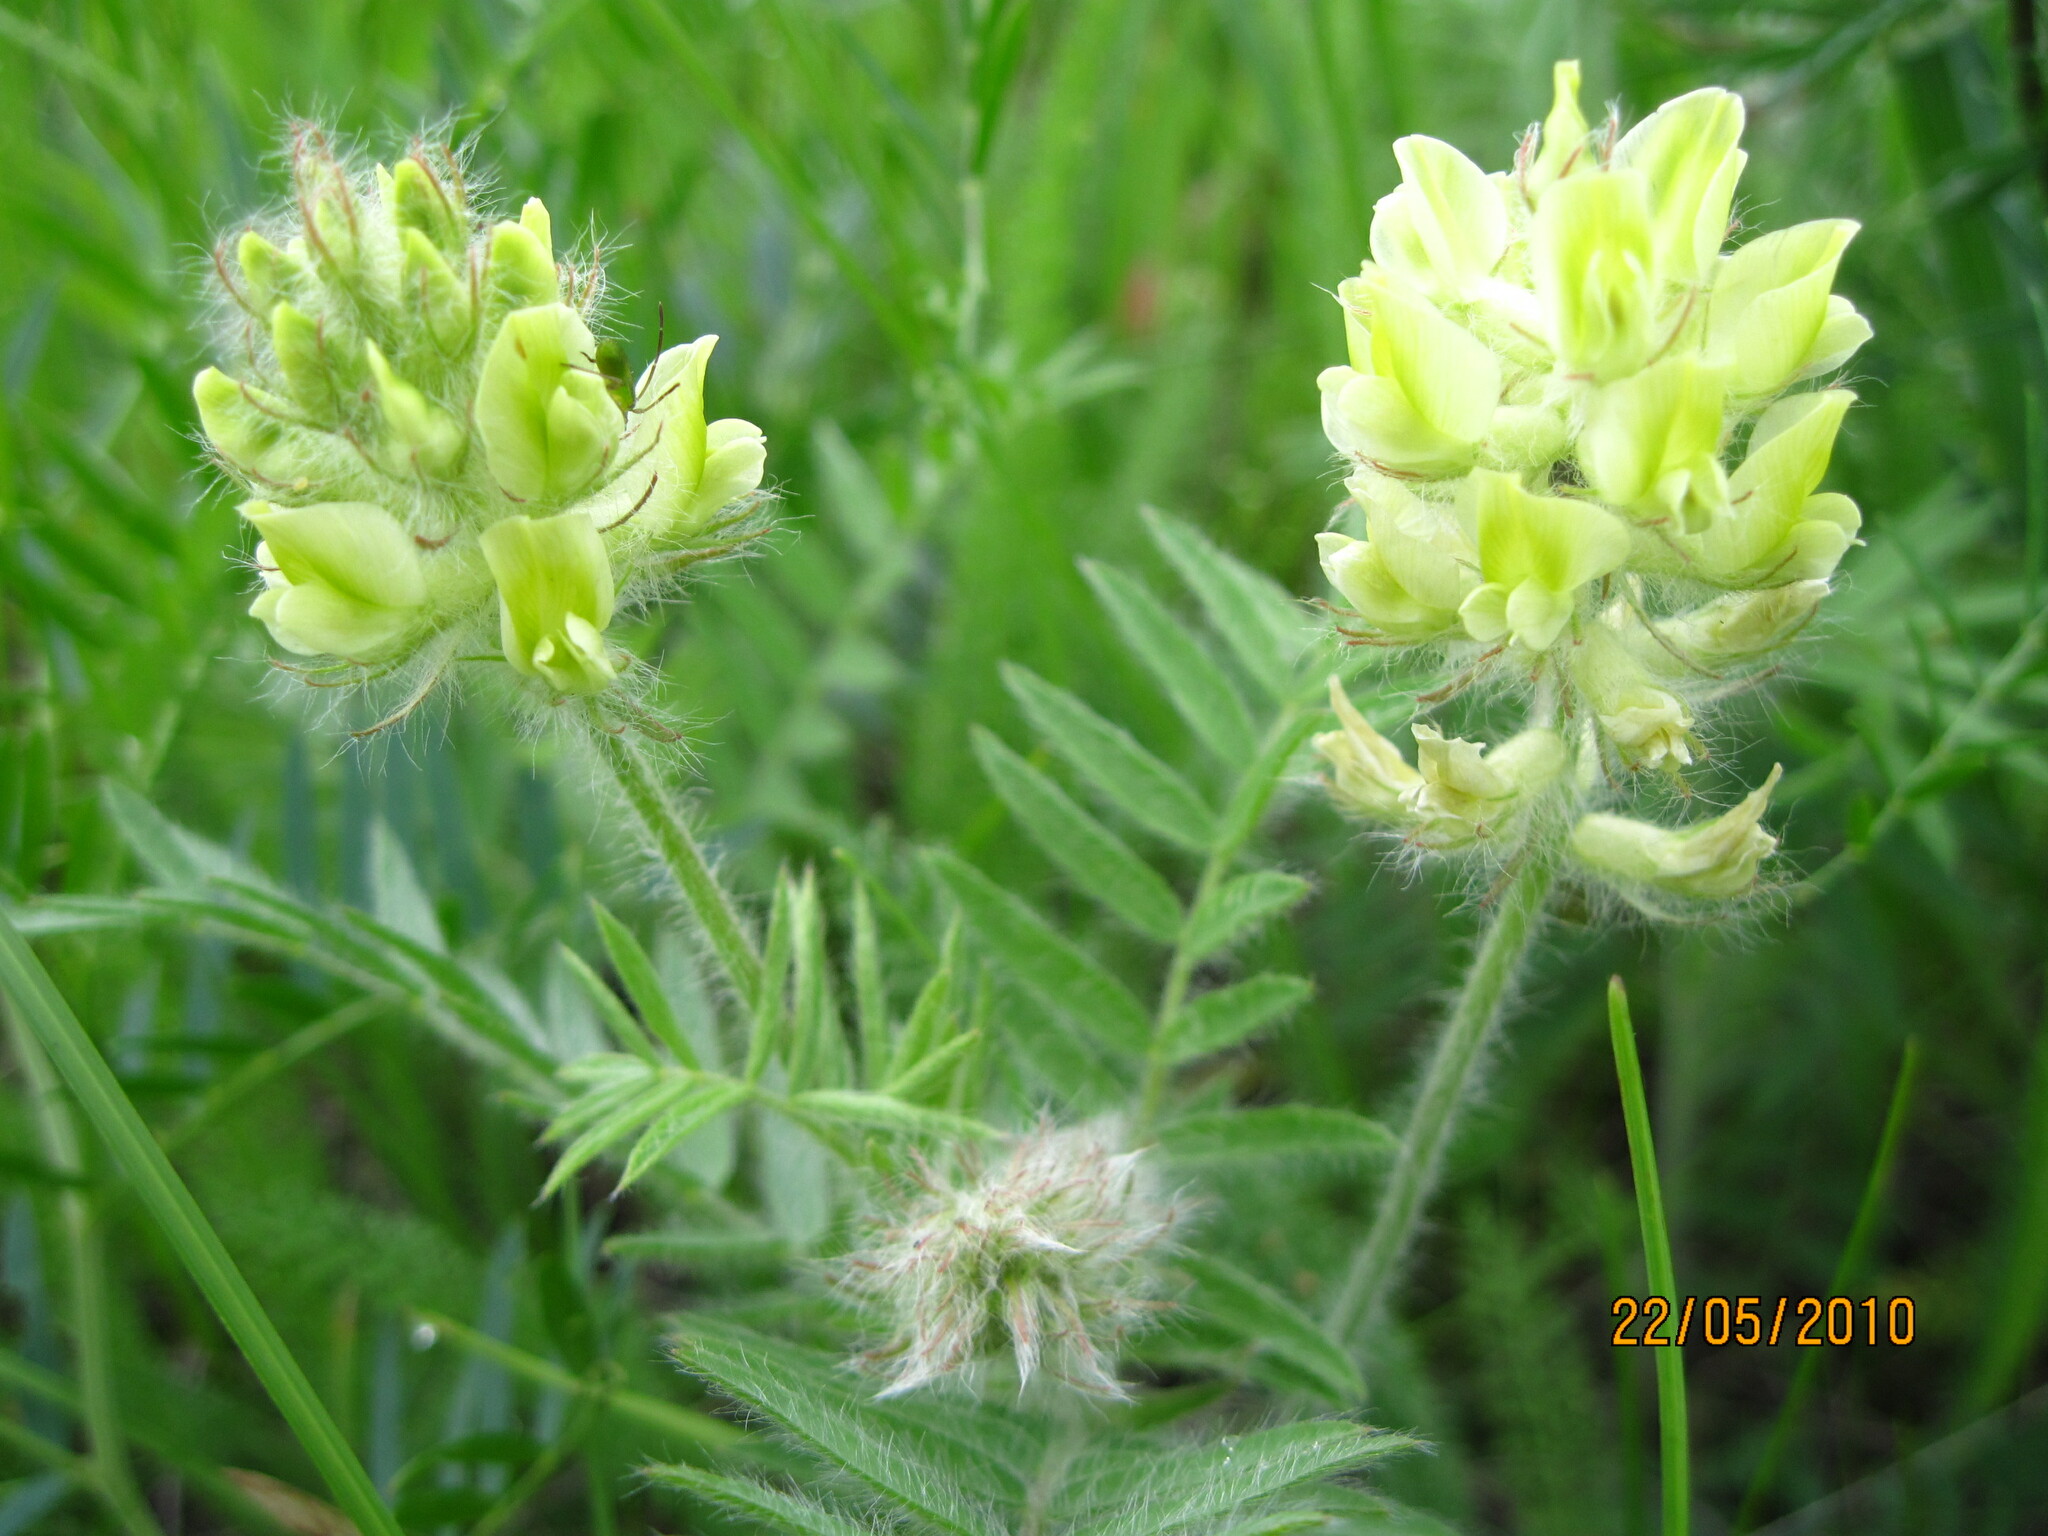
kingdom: Plantae
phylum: Tracheophyta
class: Magnoliopsida
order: Fabales
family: Fabaceae
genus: Oxytropis
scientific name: Oxytropis pilosa
